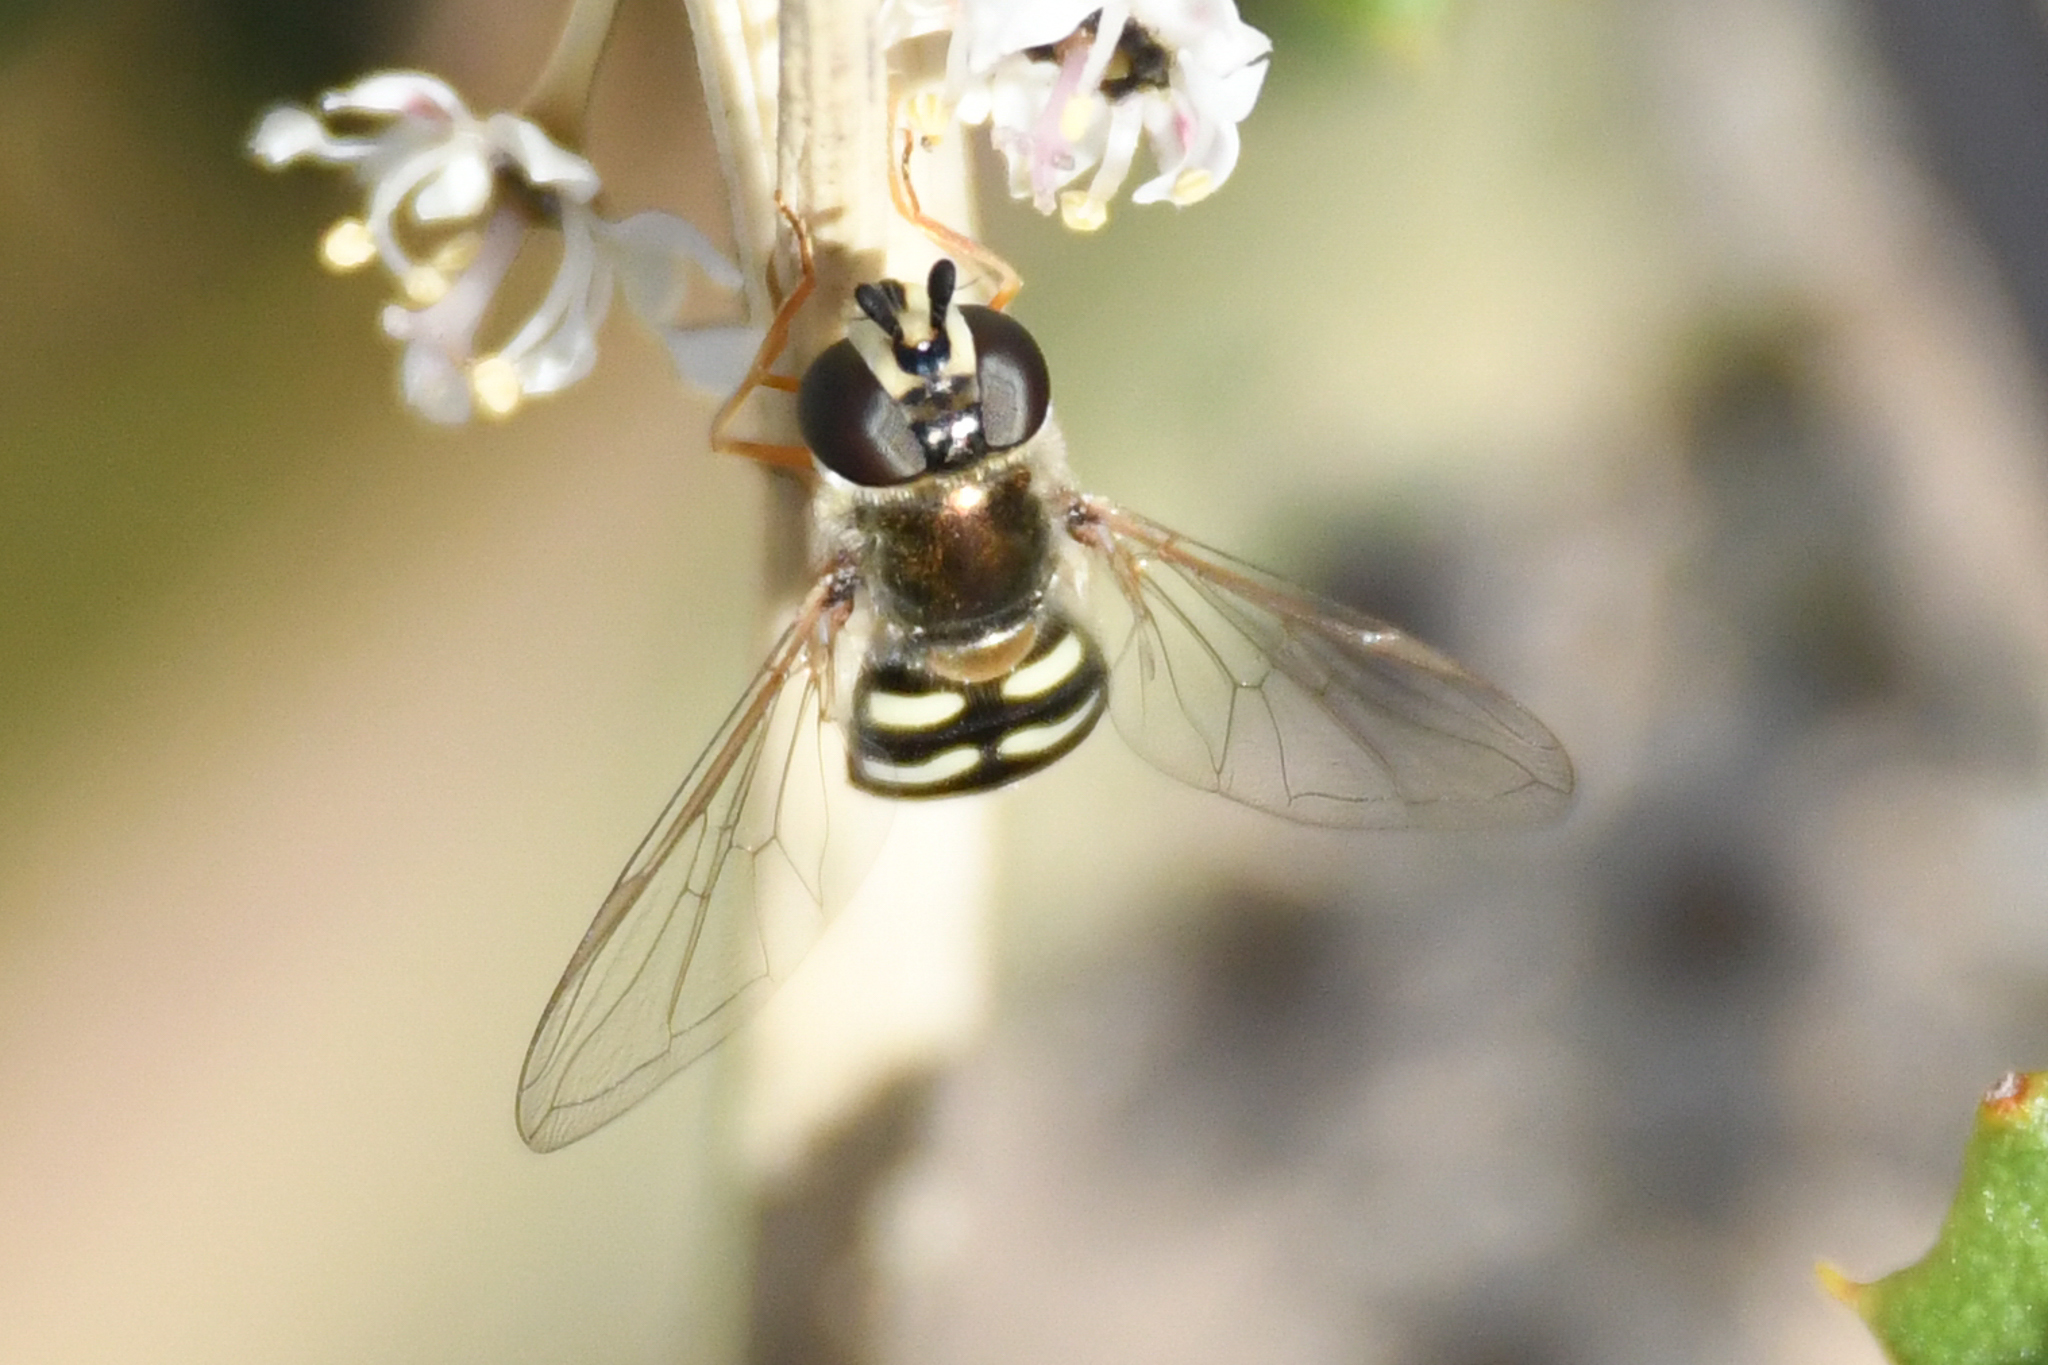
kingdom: Animalia
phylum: Arthropoda
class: Insecta
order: Diptera
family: Syrphidae
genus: Eupeodes
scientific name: Eupeodes volucris
